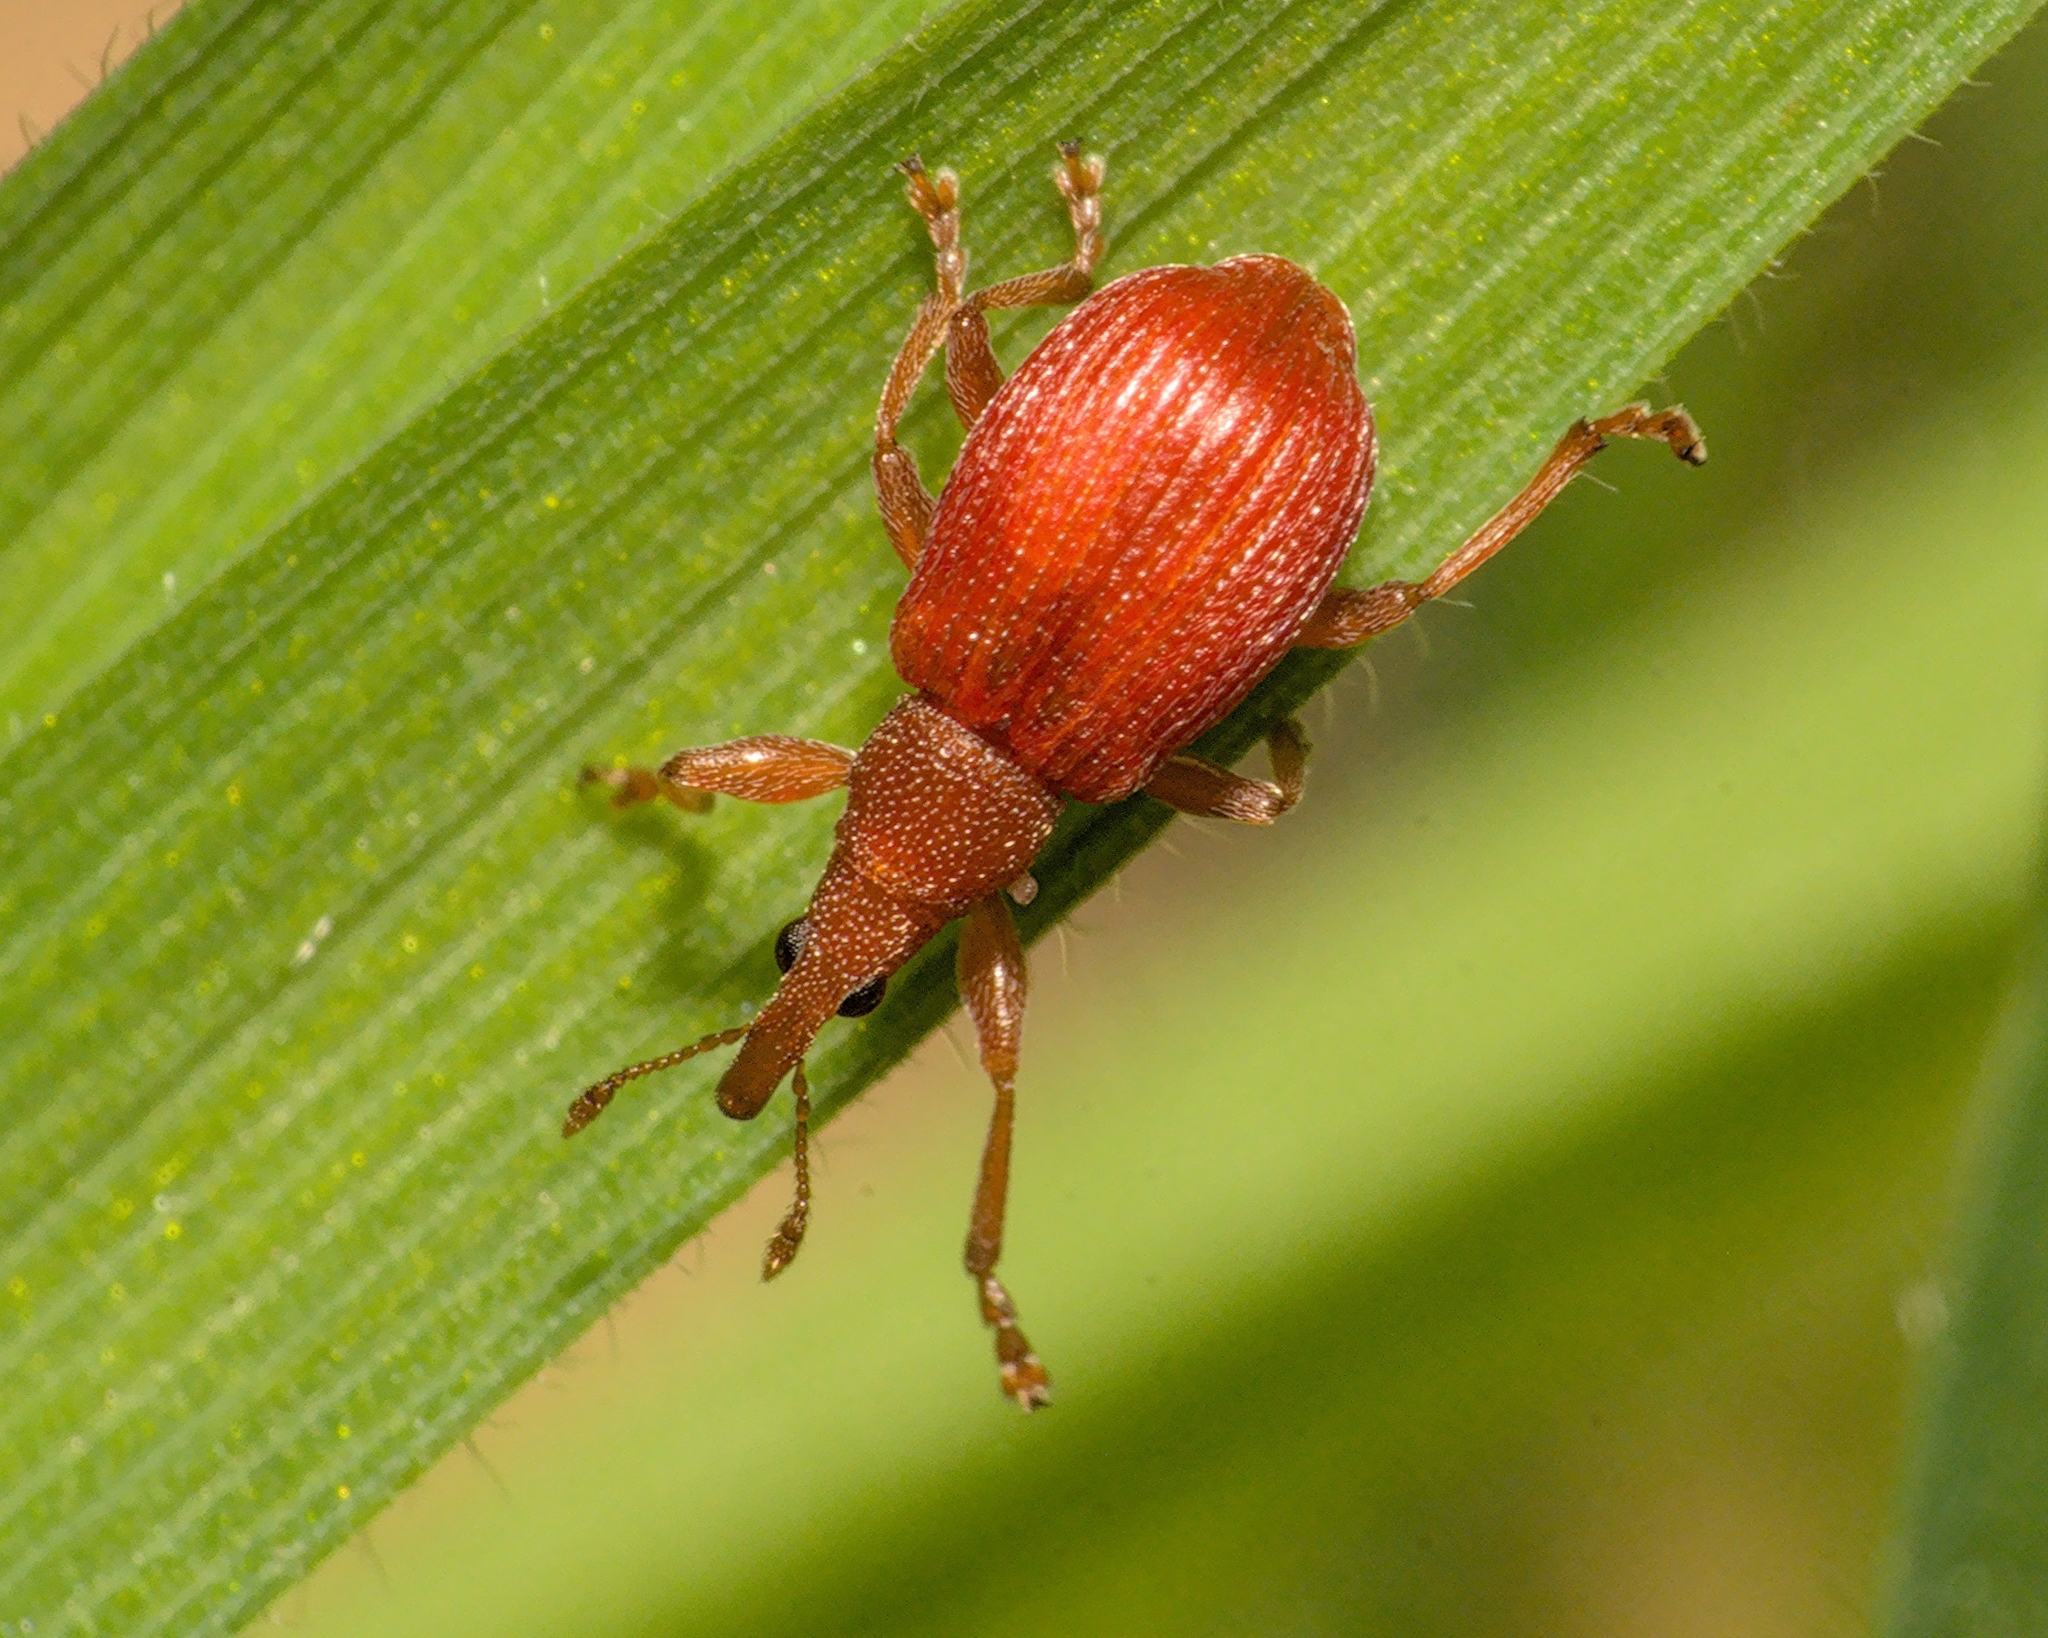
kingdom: Animalia
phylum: Arthropoda
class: Insecta
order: Coleoptera
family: Apionidae
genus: Apion
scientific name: Apion frumentarium
